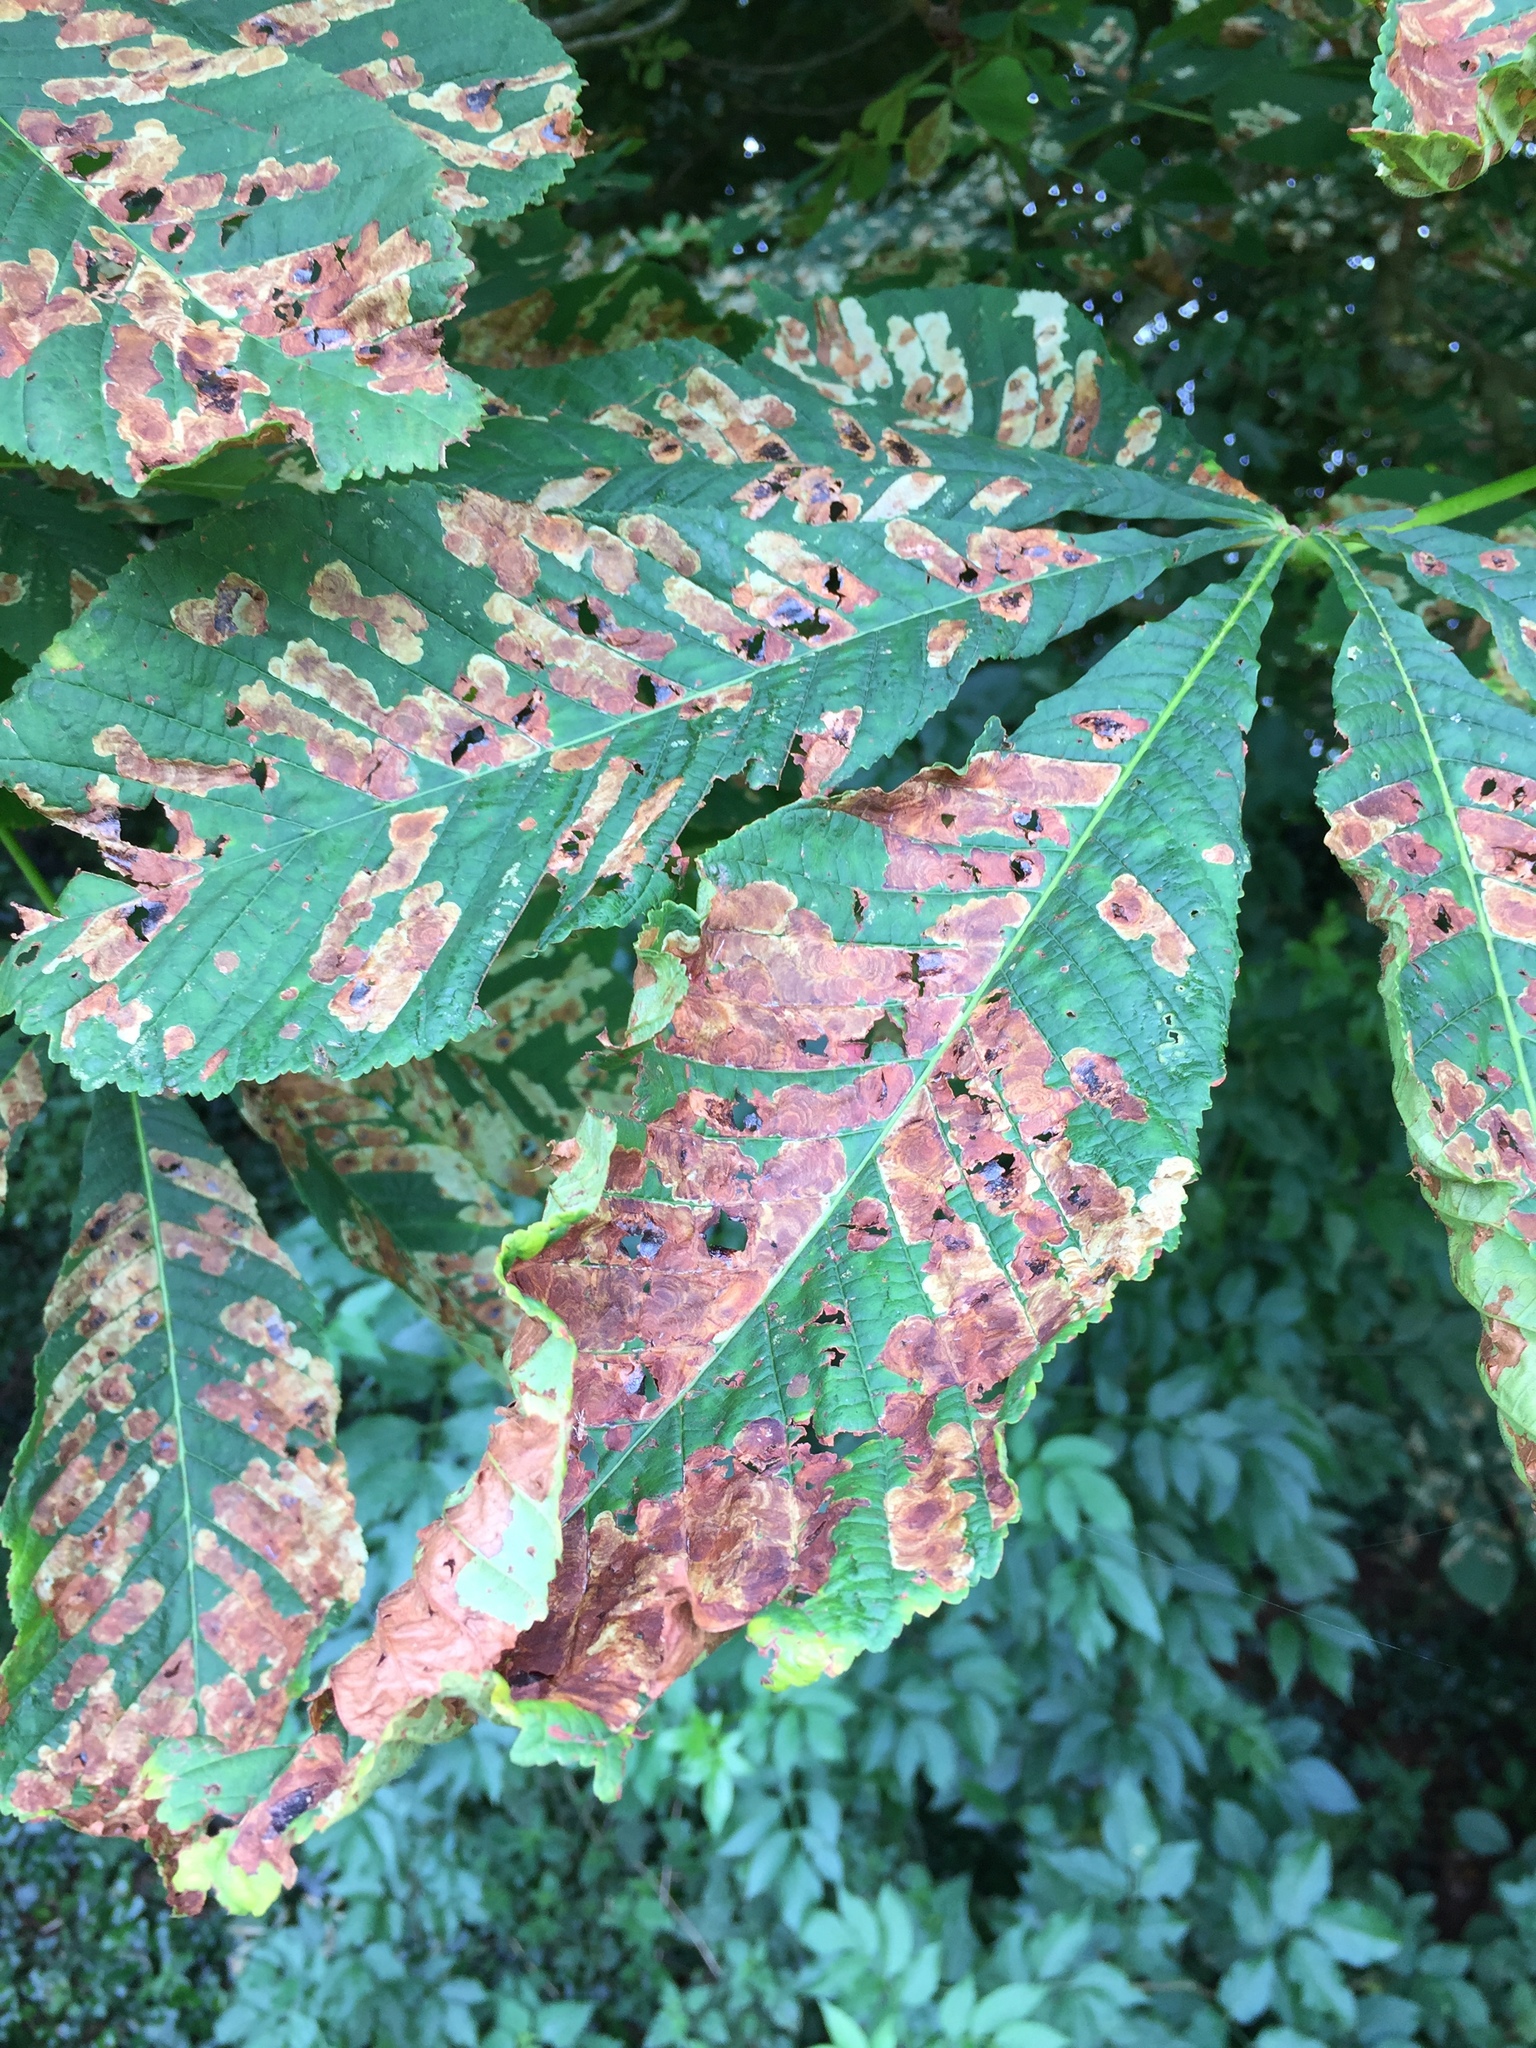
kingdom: Animalia
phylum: Arthropoda
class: Insecta
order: Lepidoptera
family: Gracillariidae
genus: Cameraria
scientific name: Cameraria ohridella
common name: Horse-chestnut leaf-miner
